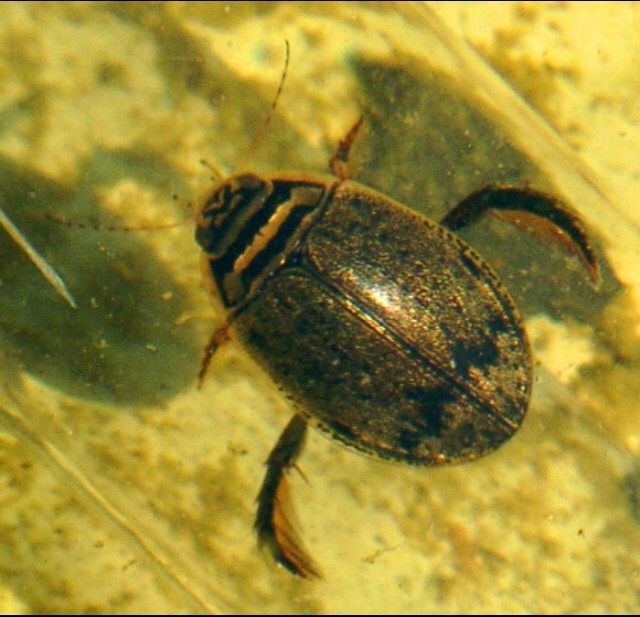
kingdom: Animalia
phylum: Arthropoda
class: Insecta
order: Coleoptera
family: Dytiscidae
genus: Acilius
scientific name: Acilius
